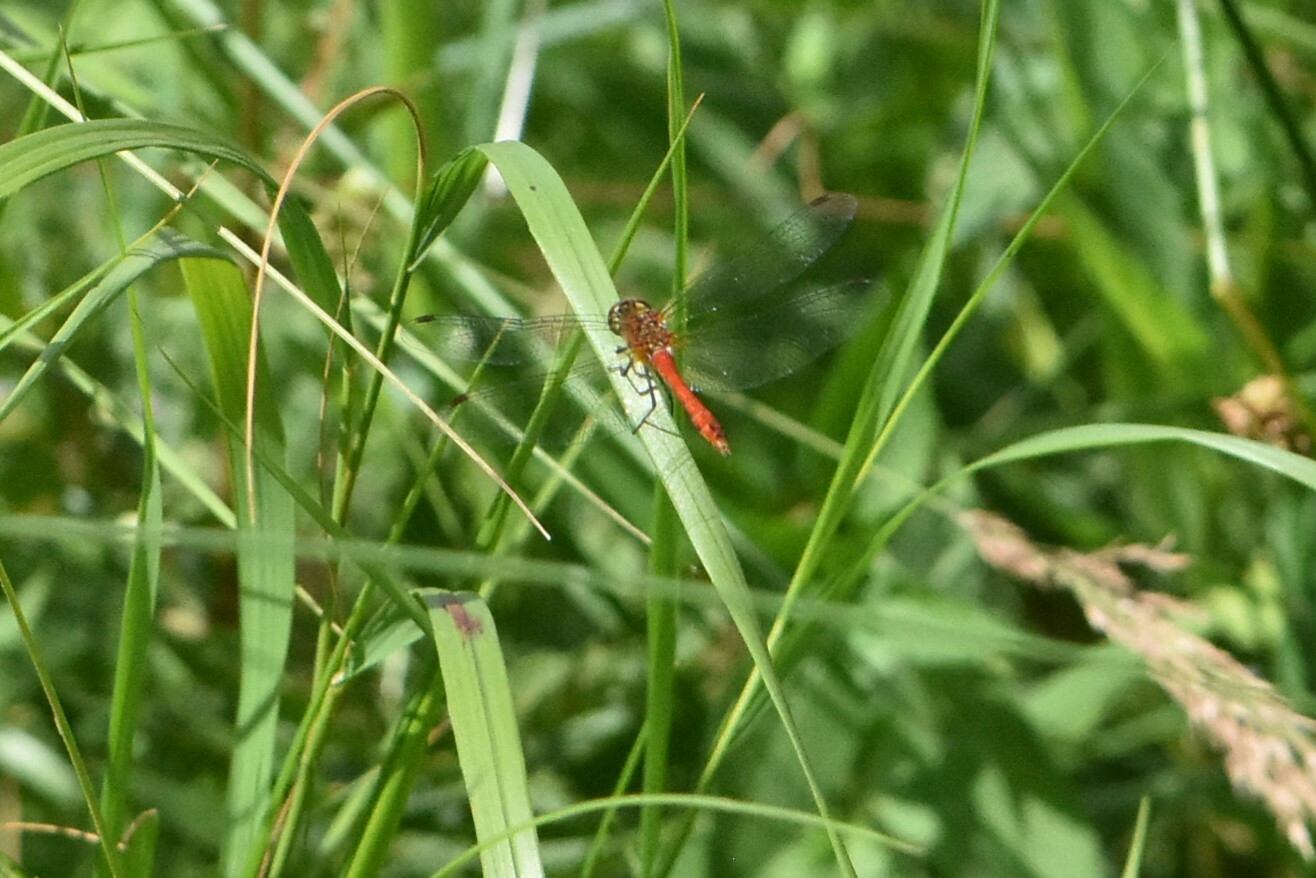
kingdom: Animalia
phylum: Arthropoda
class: Insecta
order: Odonata
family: Libellulidae
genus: Sympetrum
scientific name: Sympetrum sanguineum
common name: Ruddy darter
